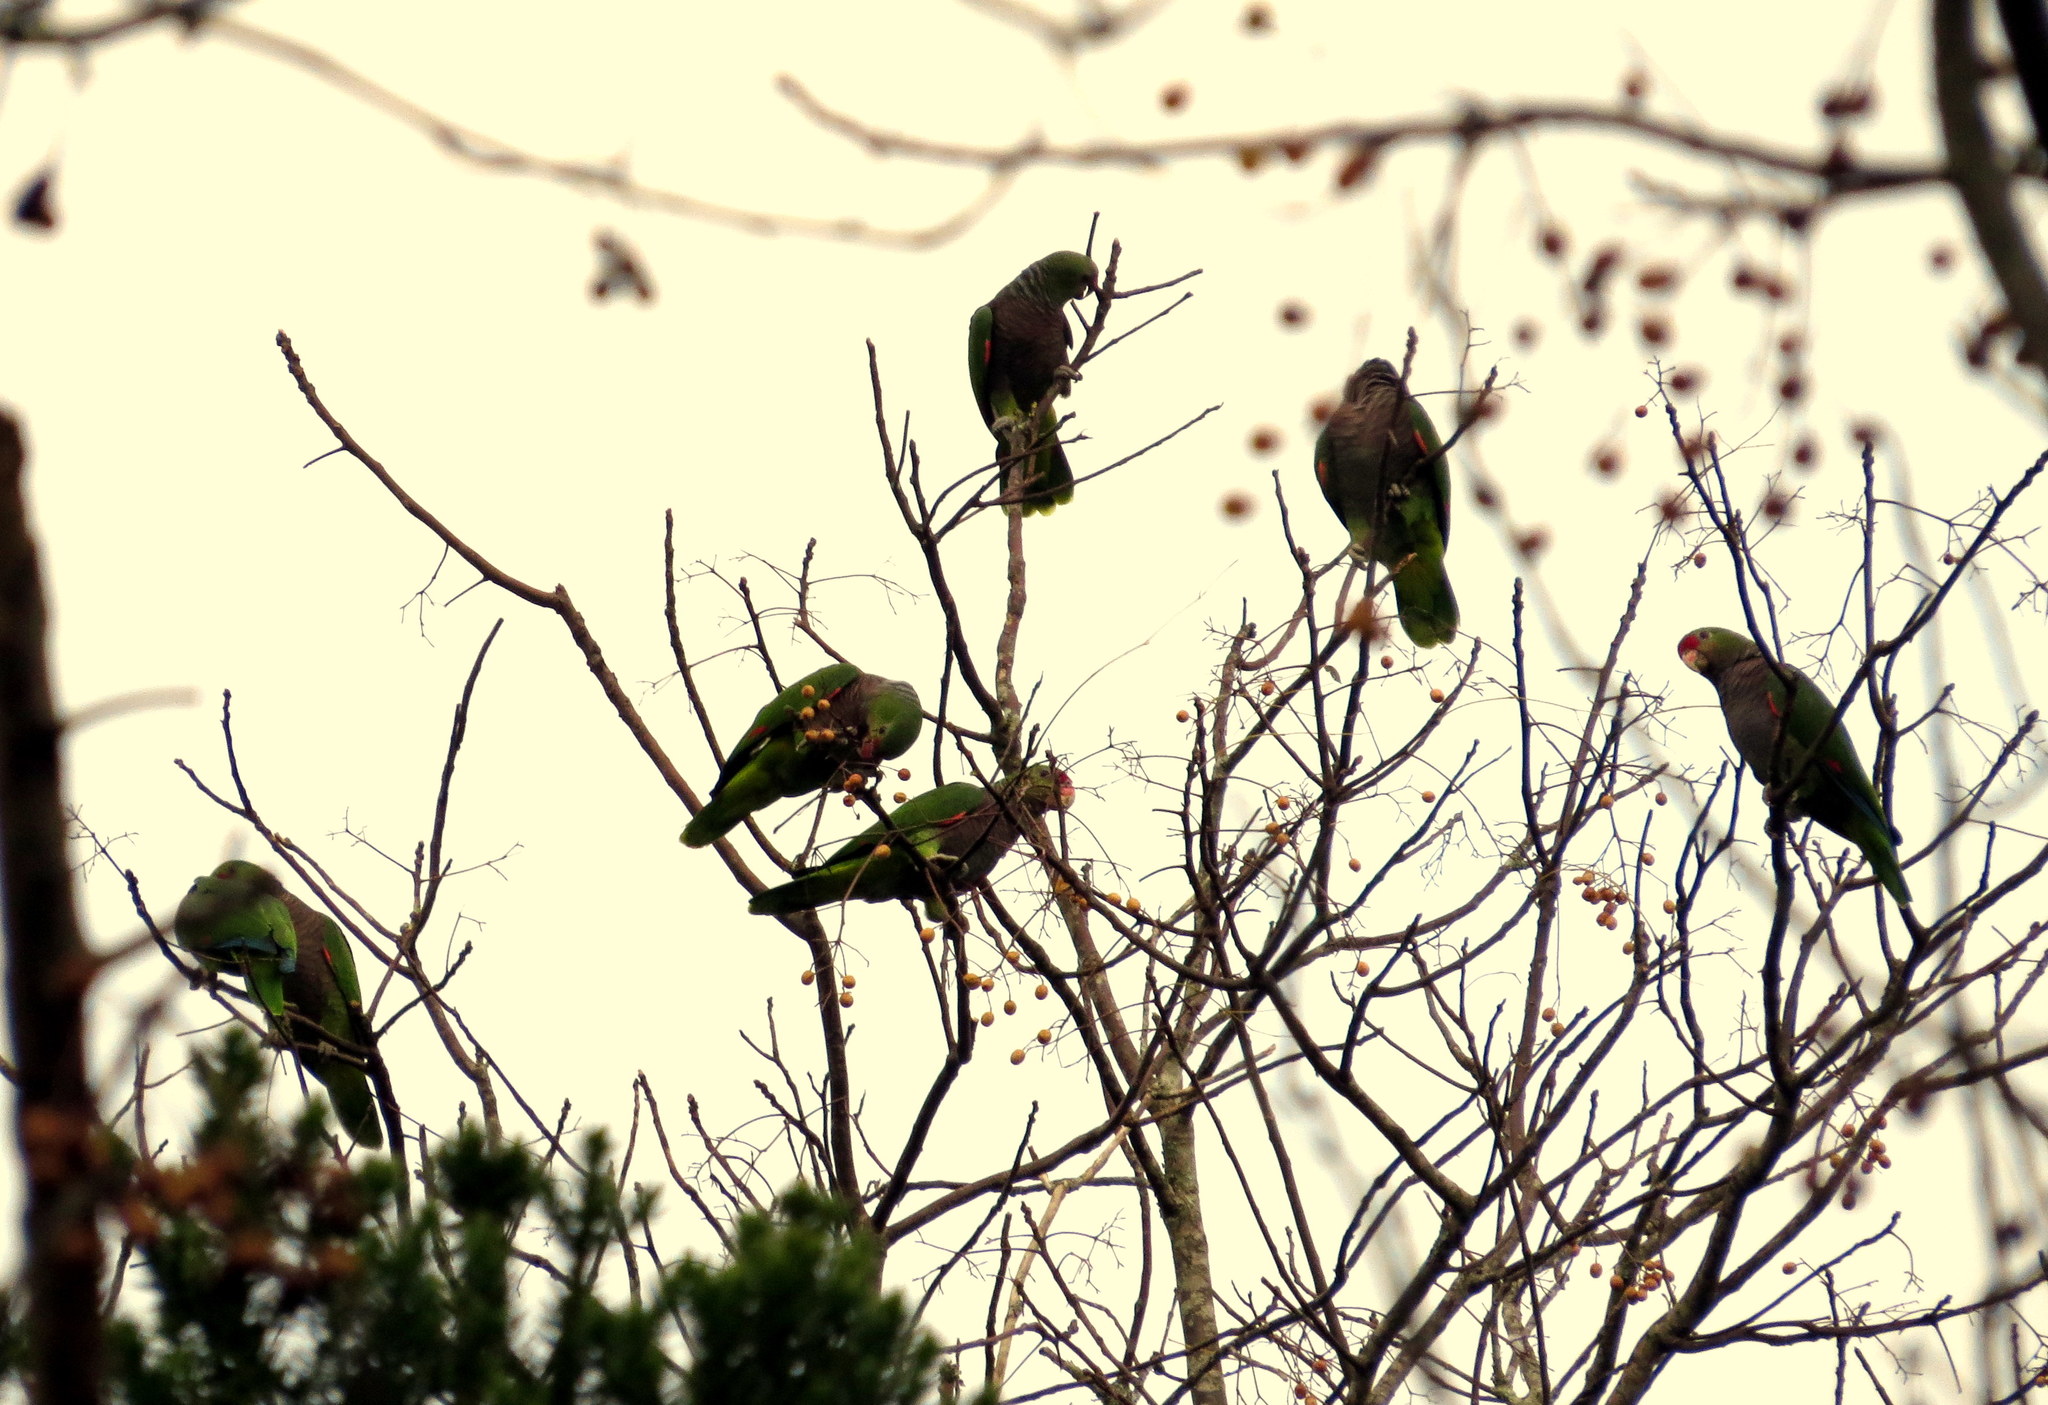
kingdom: Animalia
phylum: Chordata
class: Aves
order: Psittaciformes
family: Psittacidae
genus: Amazona
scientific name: Amazona vinacea
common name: Vinaceous-breasted amazon
